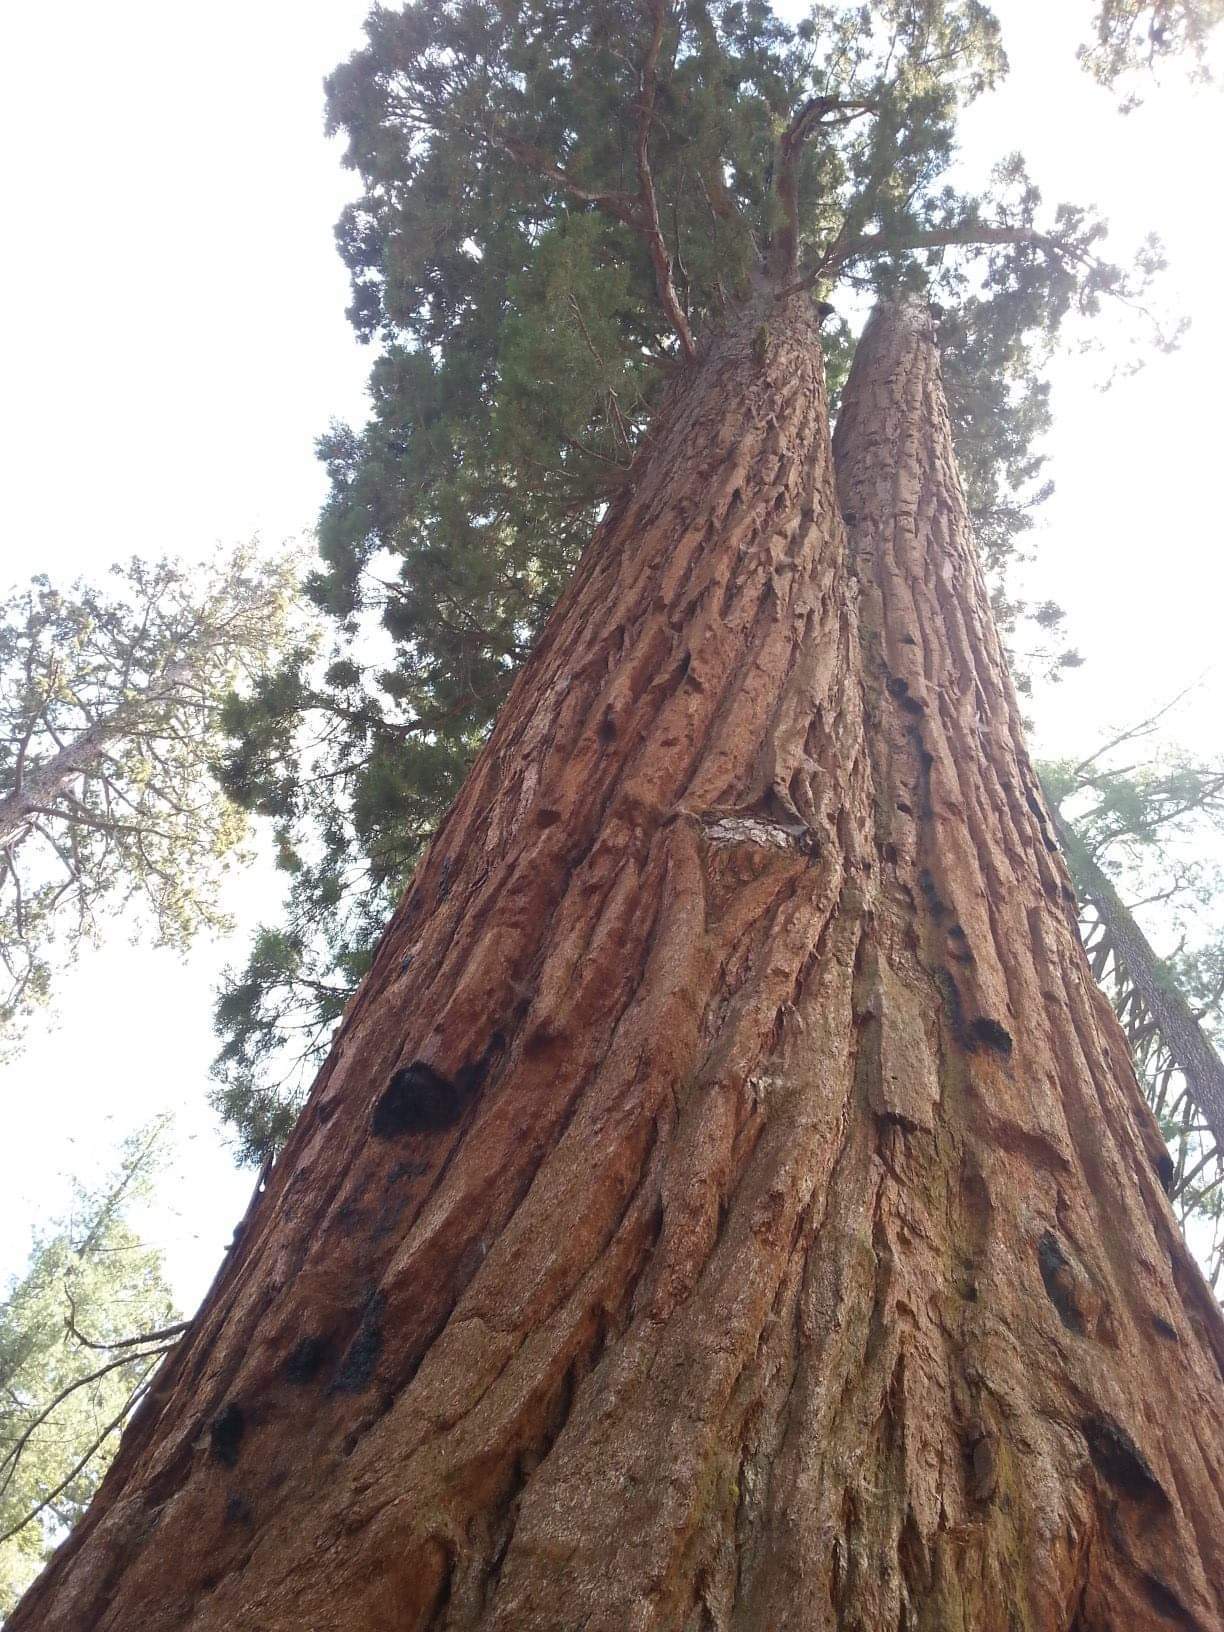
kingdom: Plantae
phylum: Tracheophyta
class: Pinopsida
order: Pinales
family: Cupressaceae
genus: Sequoiadendron
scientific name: Sequoiadendron giganteum
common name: Wellingtonia
